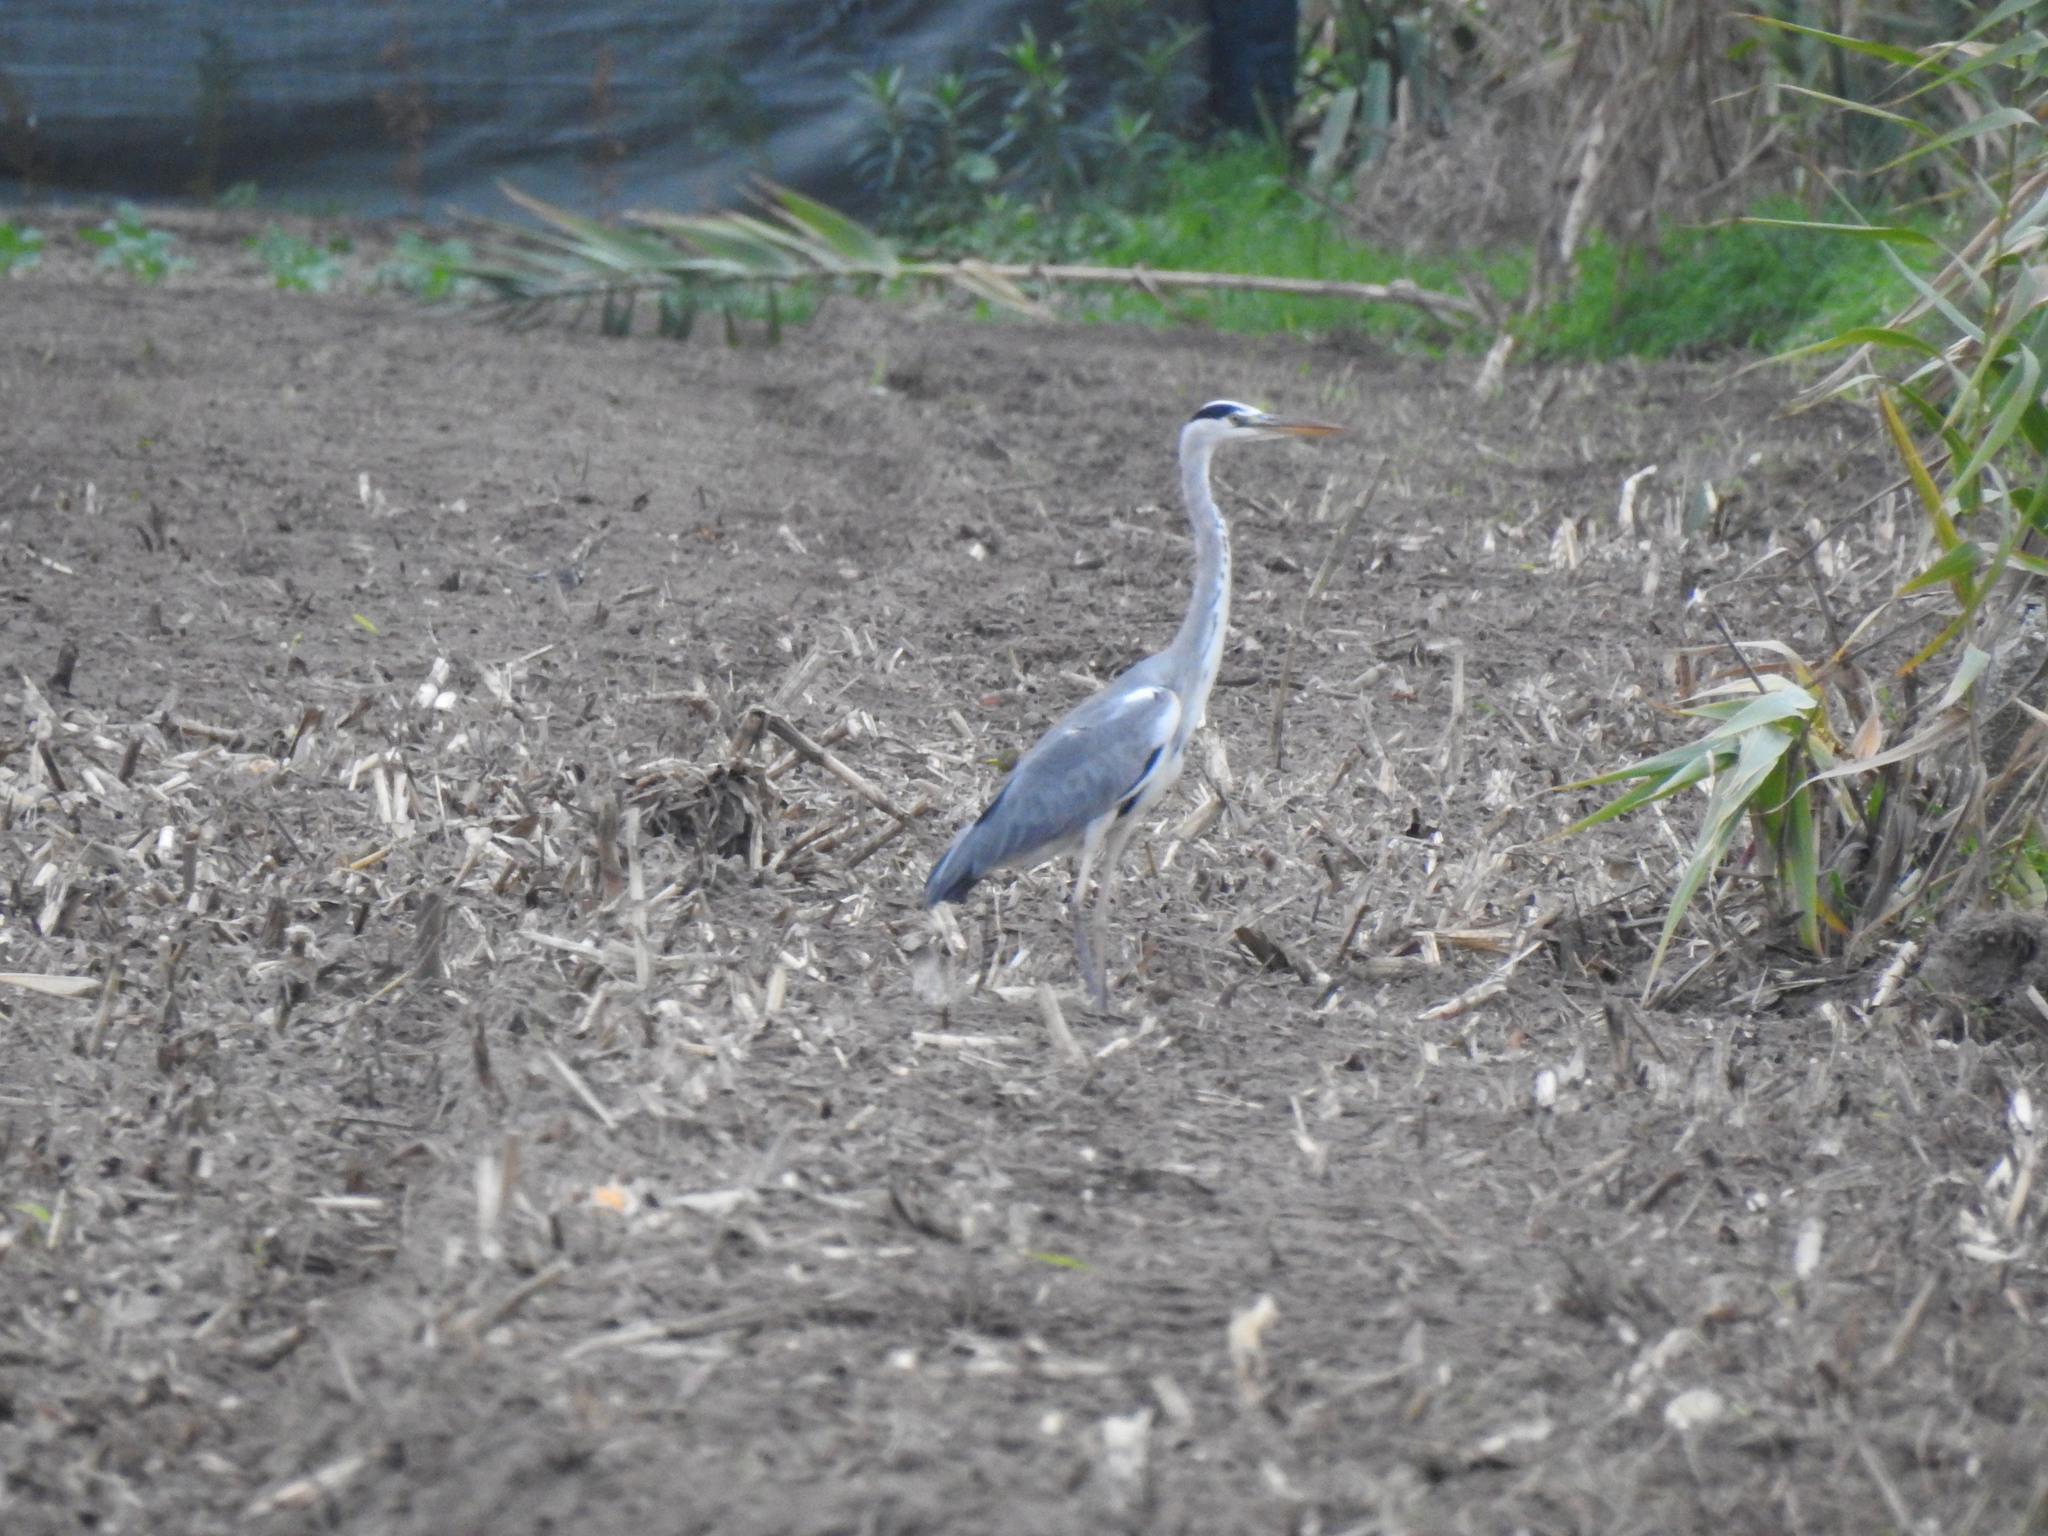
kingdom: Animalia
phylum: Chordata
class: Aves
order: Pelecaniformes
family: Ardeidae
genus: Ardea
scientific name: Ardea cinerea
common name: Grey heron
